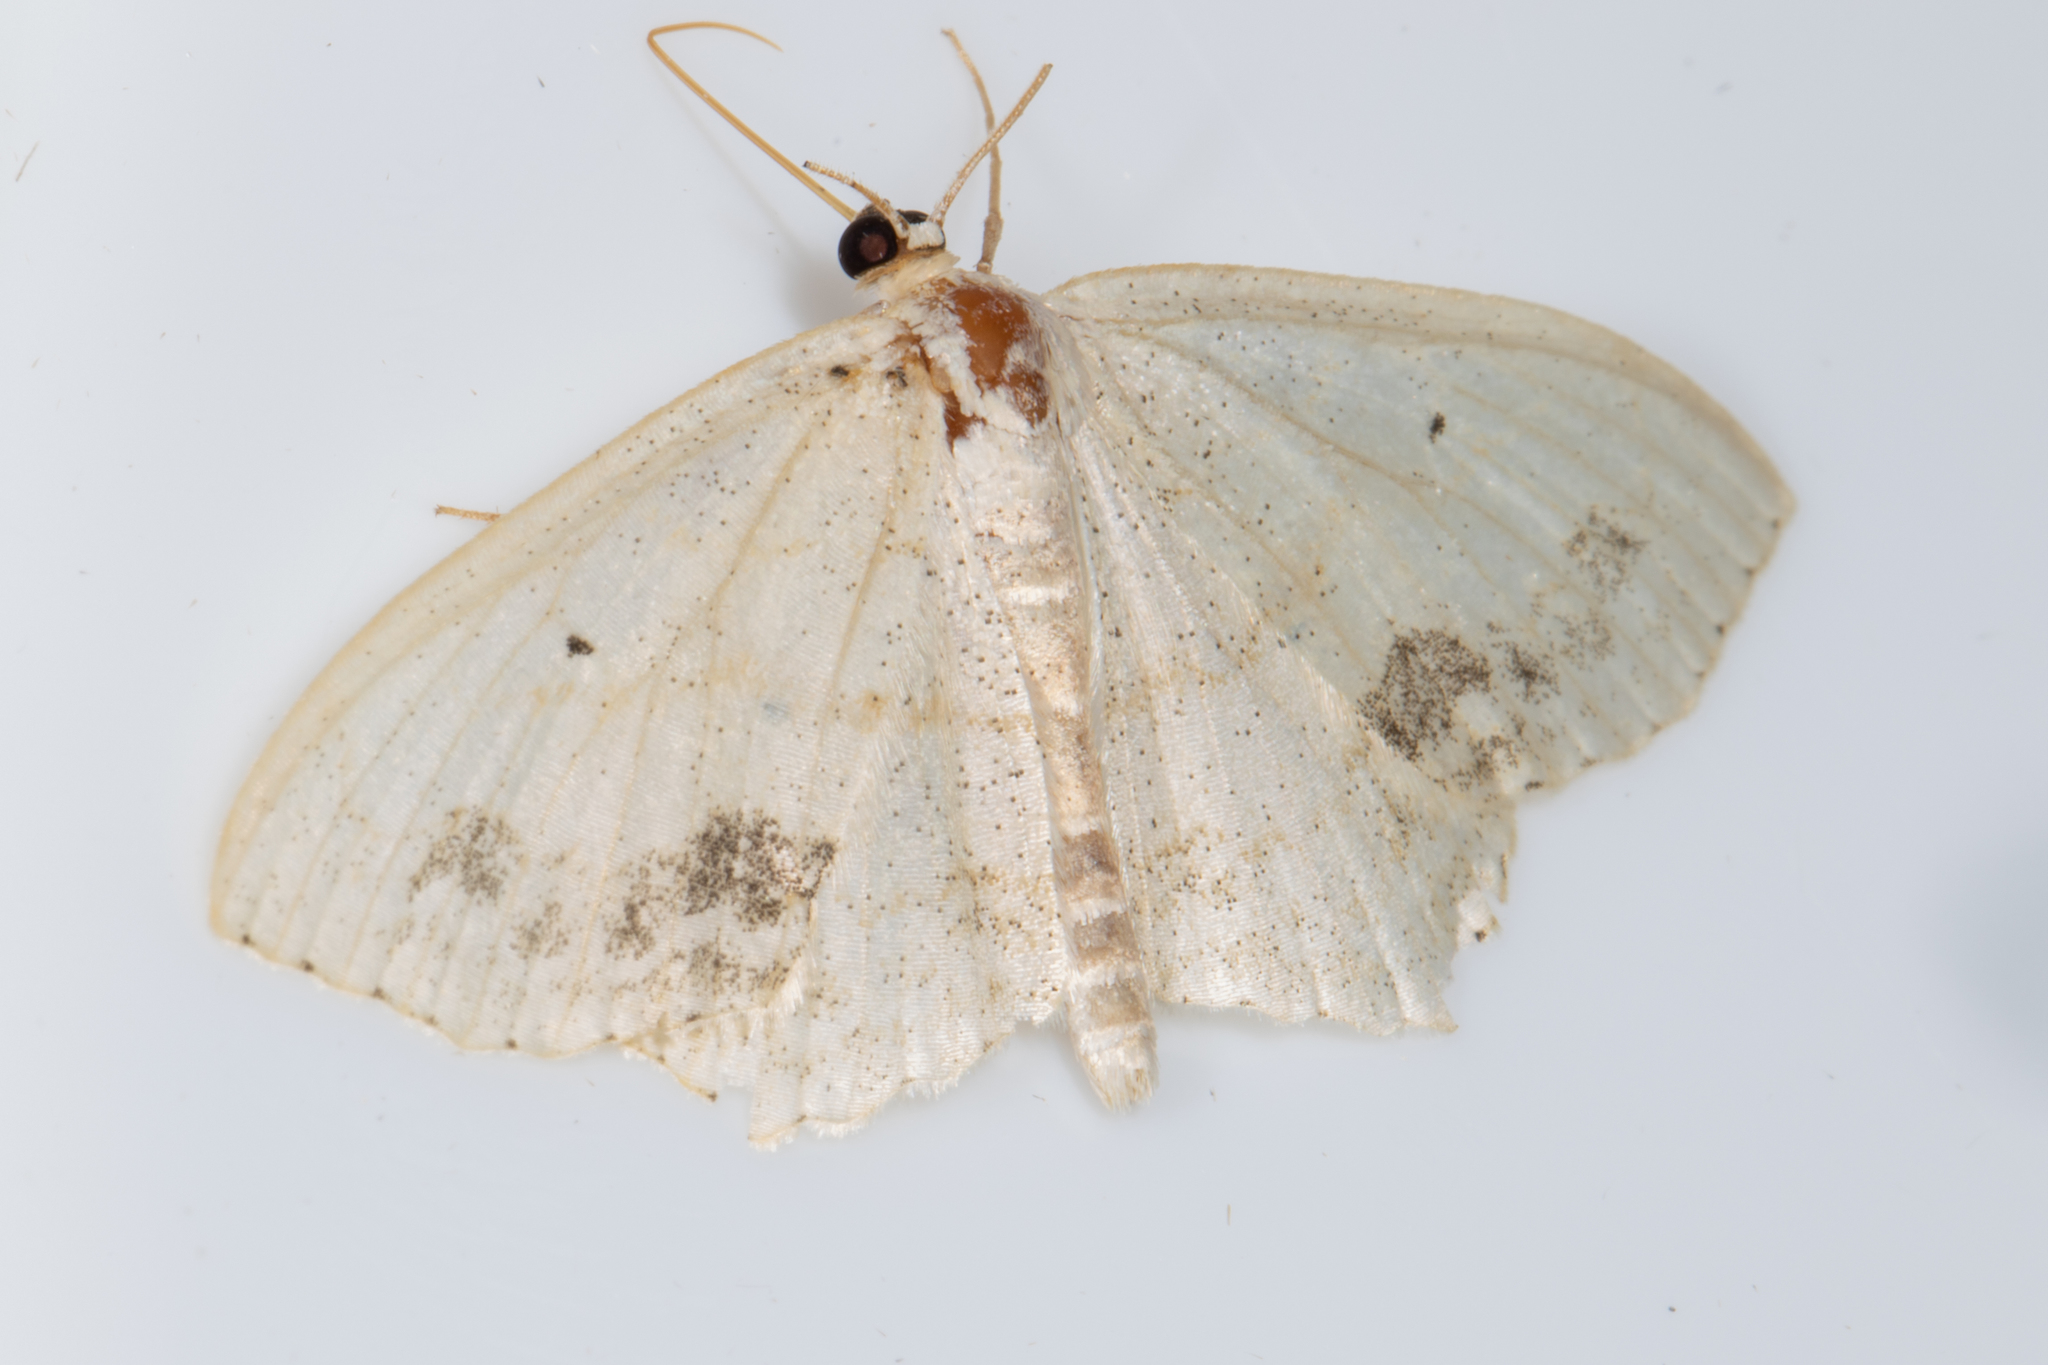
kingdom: Animalia
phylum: Arthropoda
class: Insecta
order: Lepidoptera
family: Geometridae
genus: Scopula
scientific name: Scopula limboundata
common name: Large lace border
